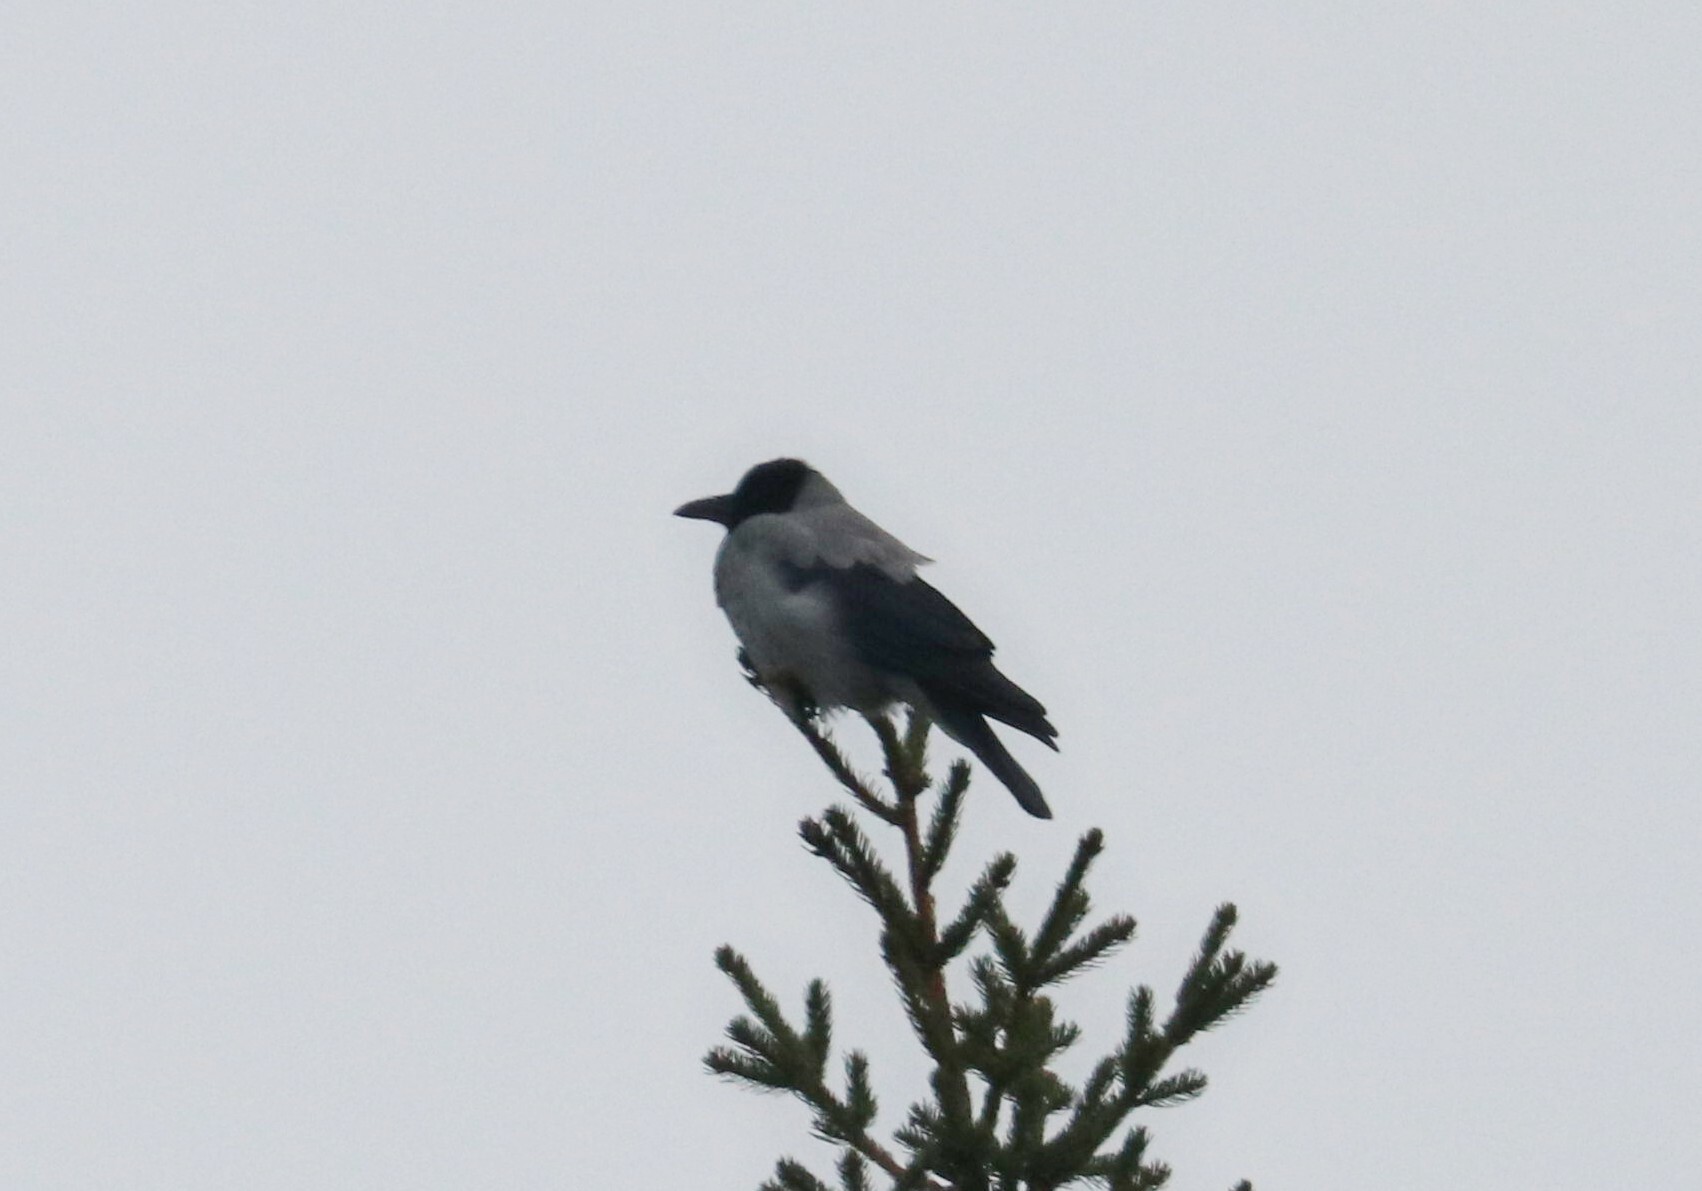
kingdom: Animalia
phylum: Chordata
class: Aves
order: Passeriformes
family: Corvidae
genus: Corvus
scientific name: Corvus cornix
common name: Hooded crow
